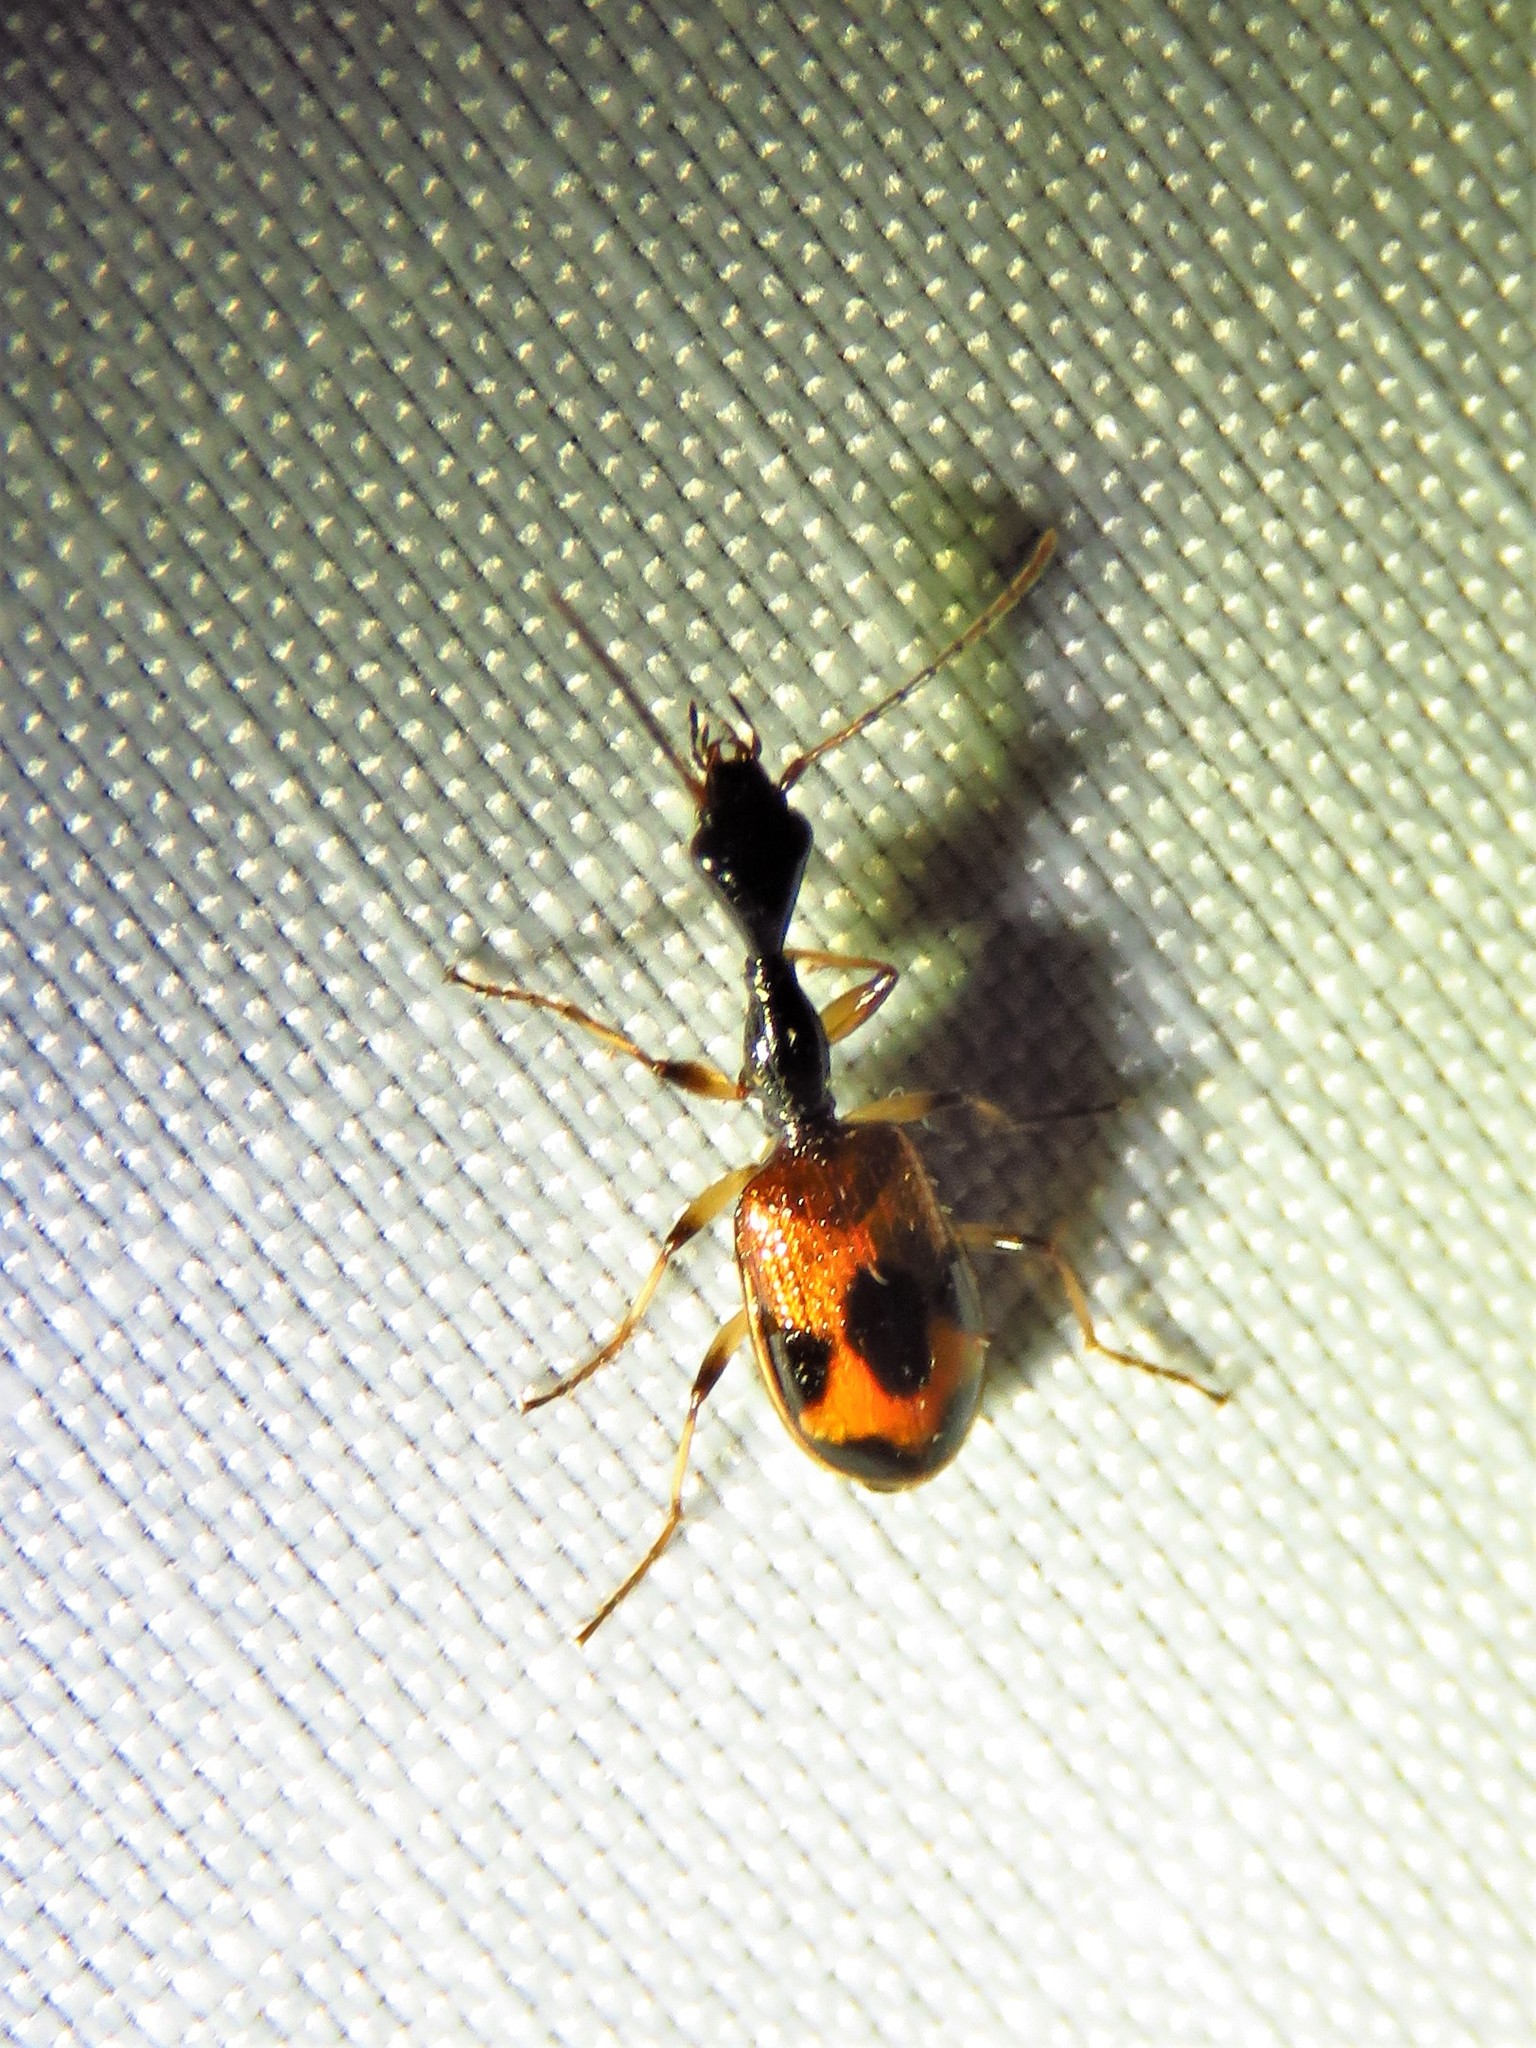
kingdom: Animalia
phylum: Arthropoda
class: Insecta
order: Coleoptera
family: Carabidae
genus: Colliuris
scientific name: Colliuris pensylvanica
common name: Long-necked ground beetle
